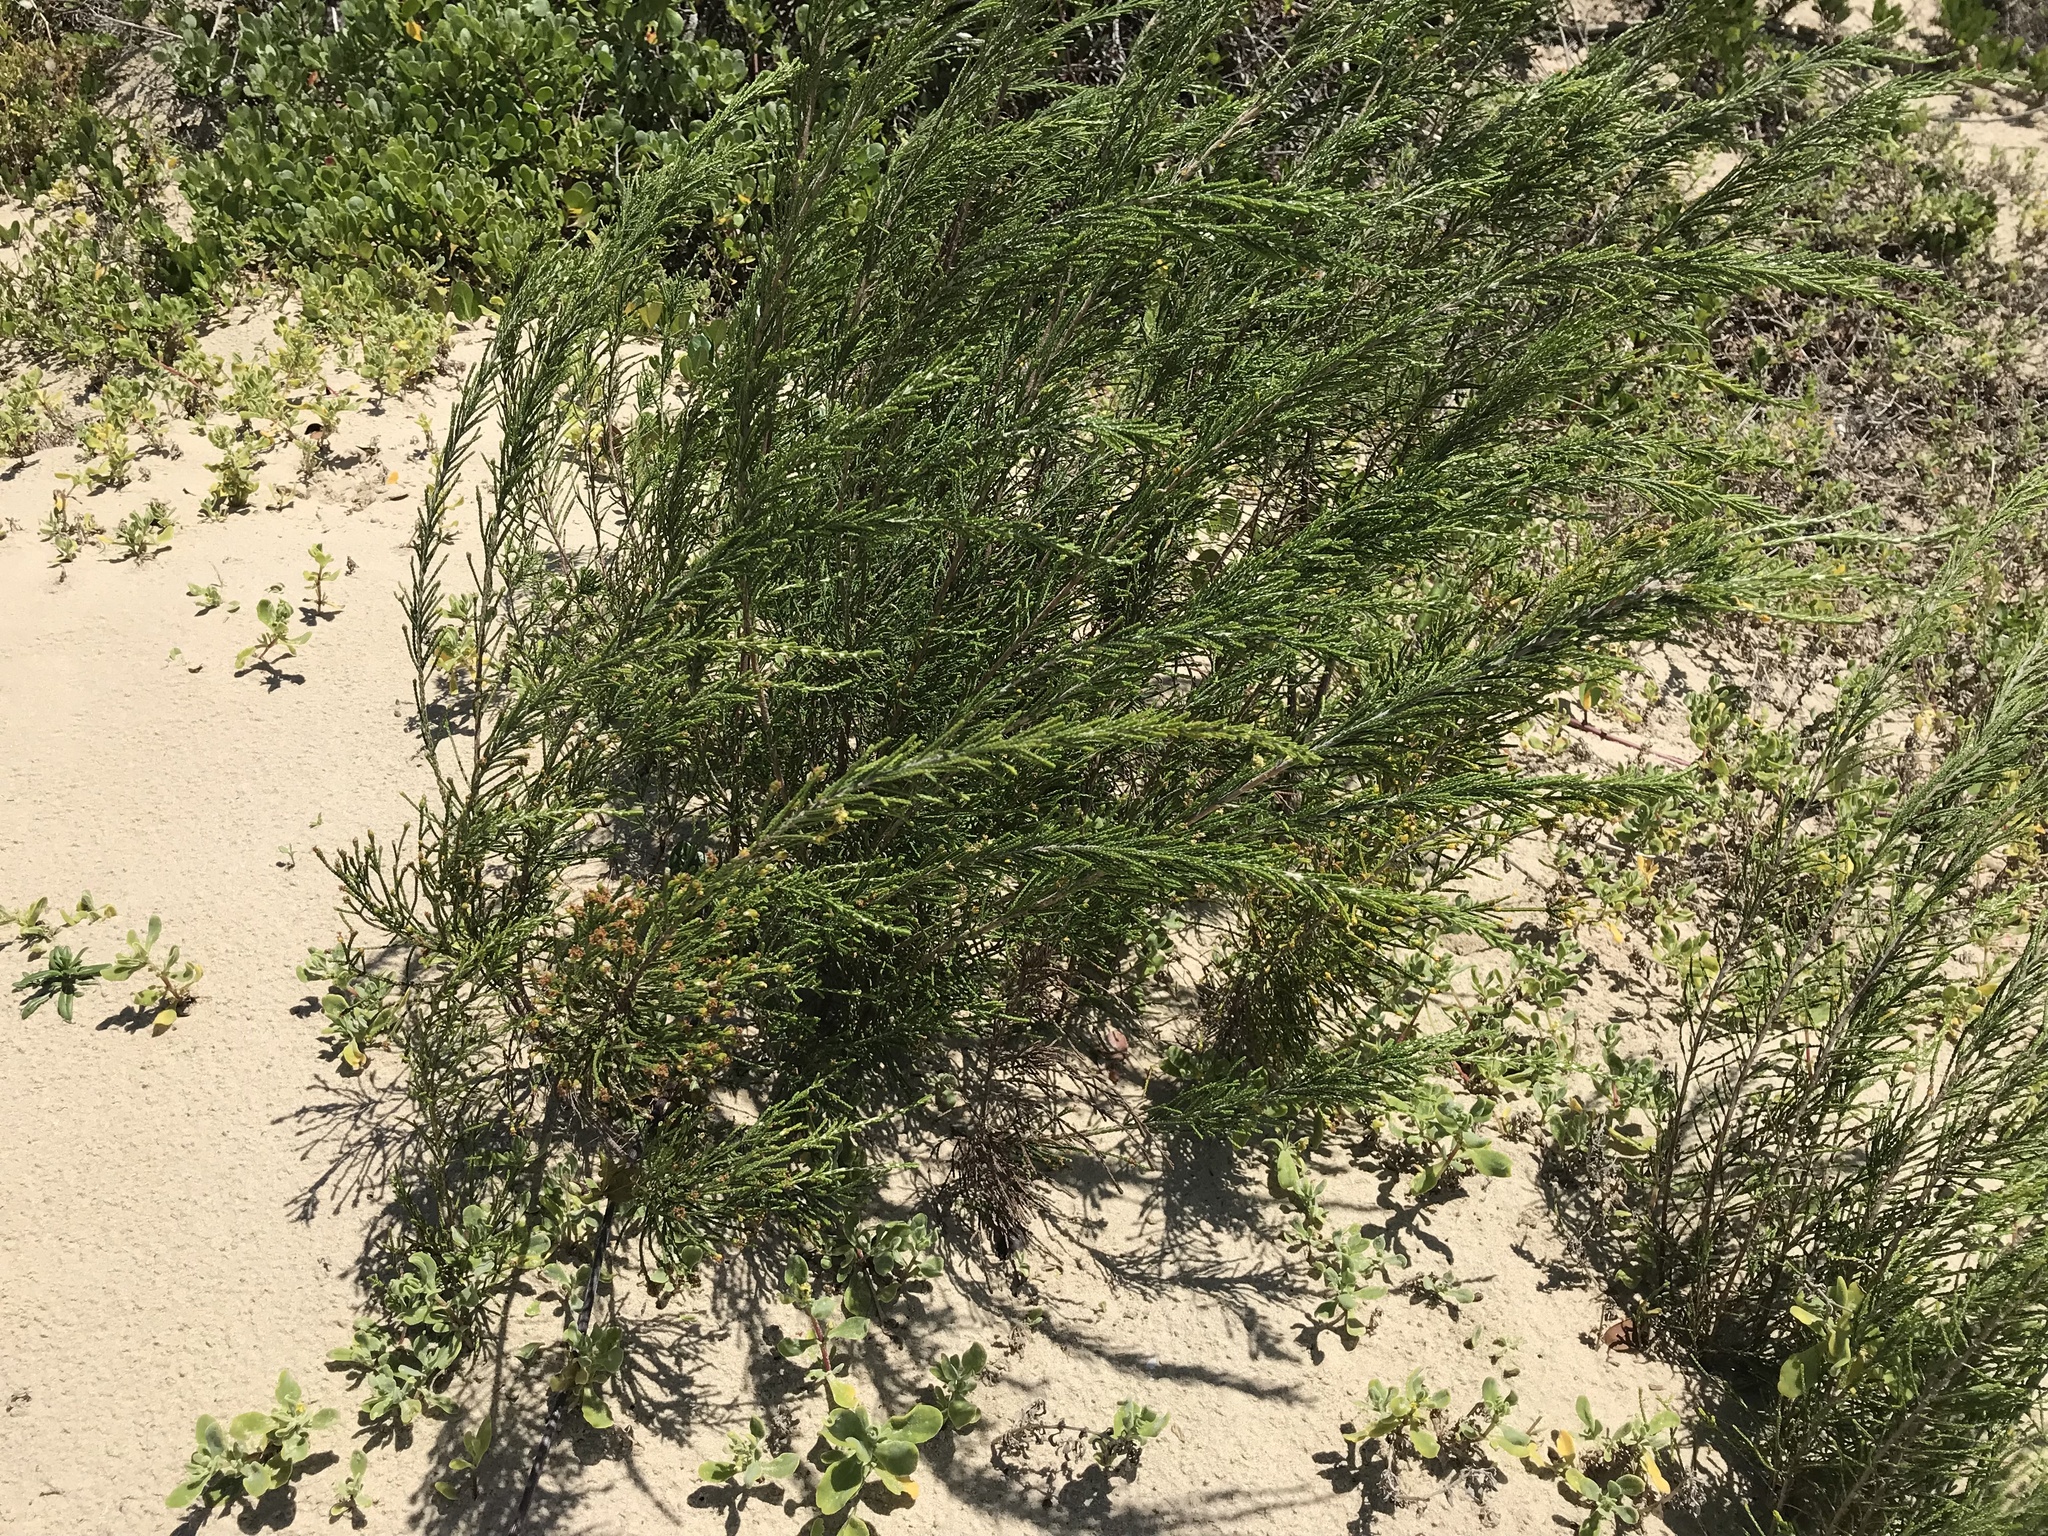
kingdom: Plantae
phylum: Tracheophyta
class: Magnoliopsida
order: Malvales
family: Thymelaeaceae
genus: Passerina
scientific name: Passerina rigida
